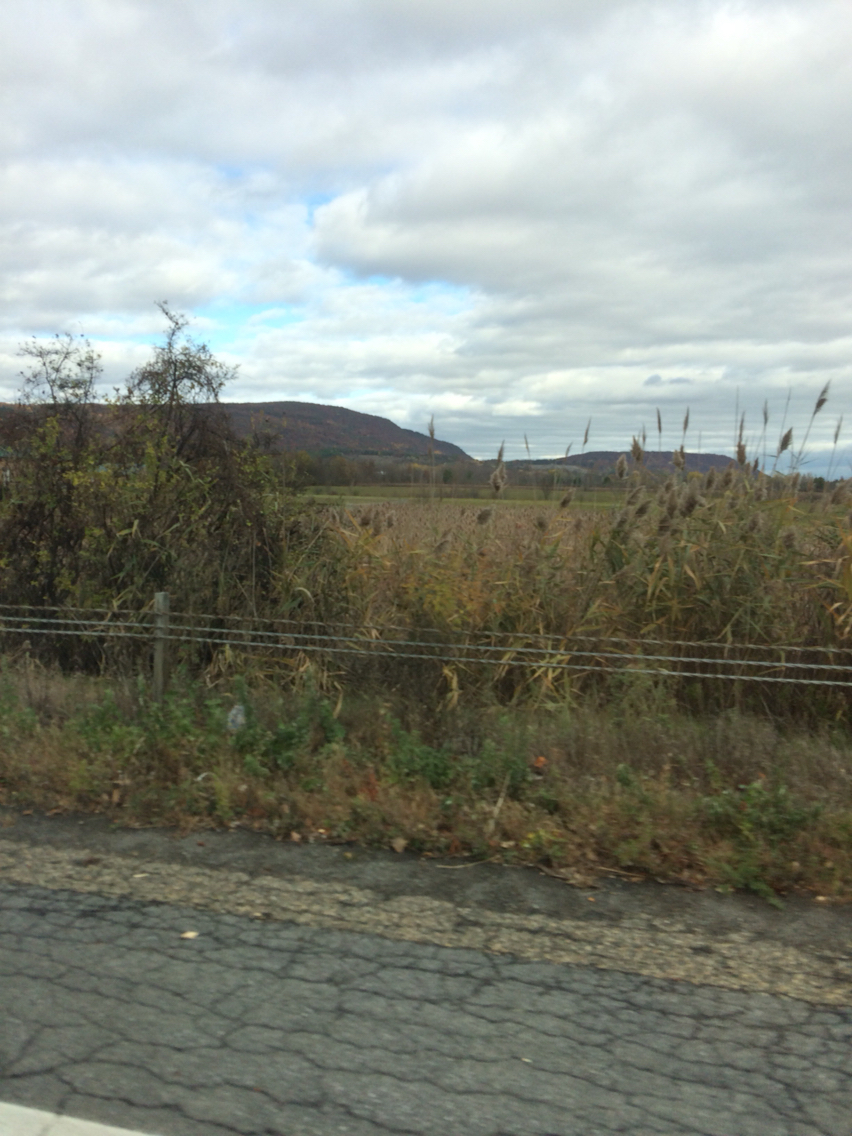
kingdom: Plantae
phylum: Tracheophyta
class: Liliopsida
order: Poales
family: Poaceae
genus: Phragmites
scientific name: Phragmites australis
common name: Common reed
